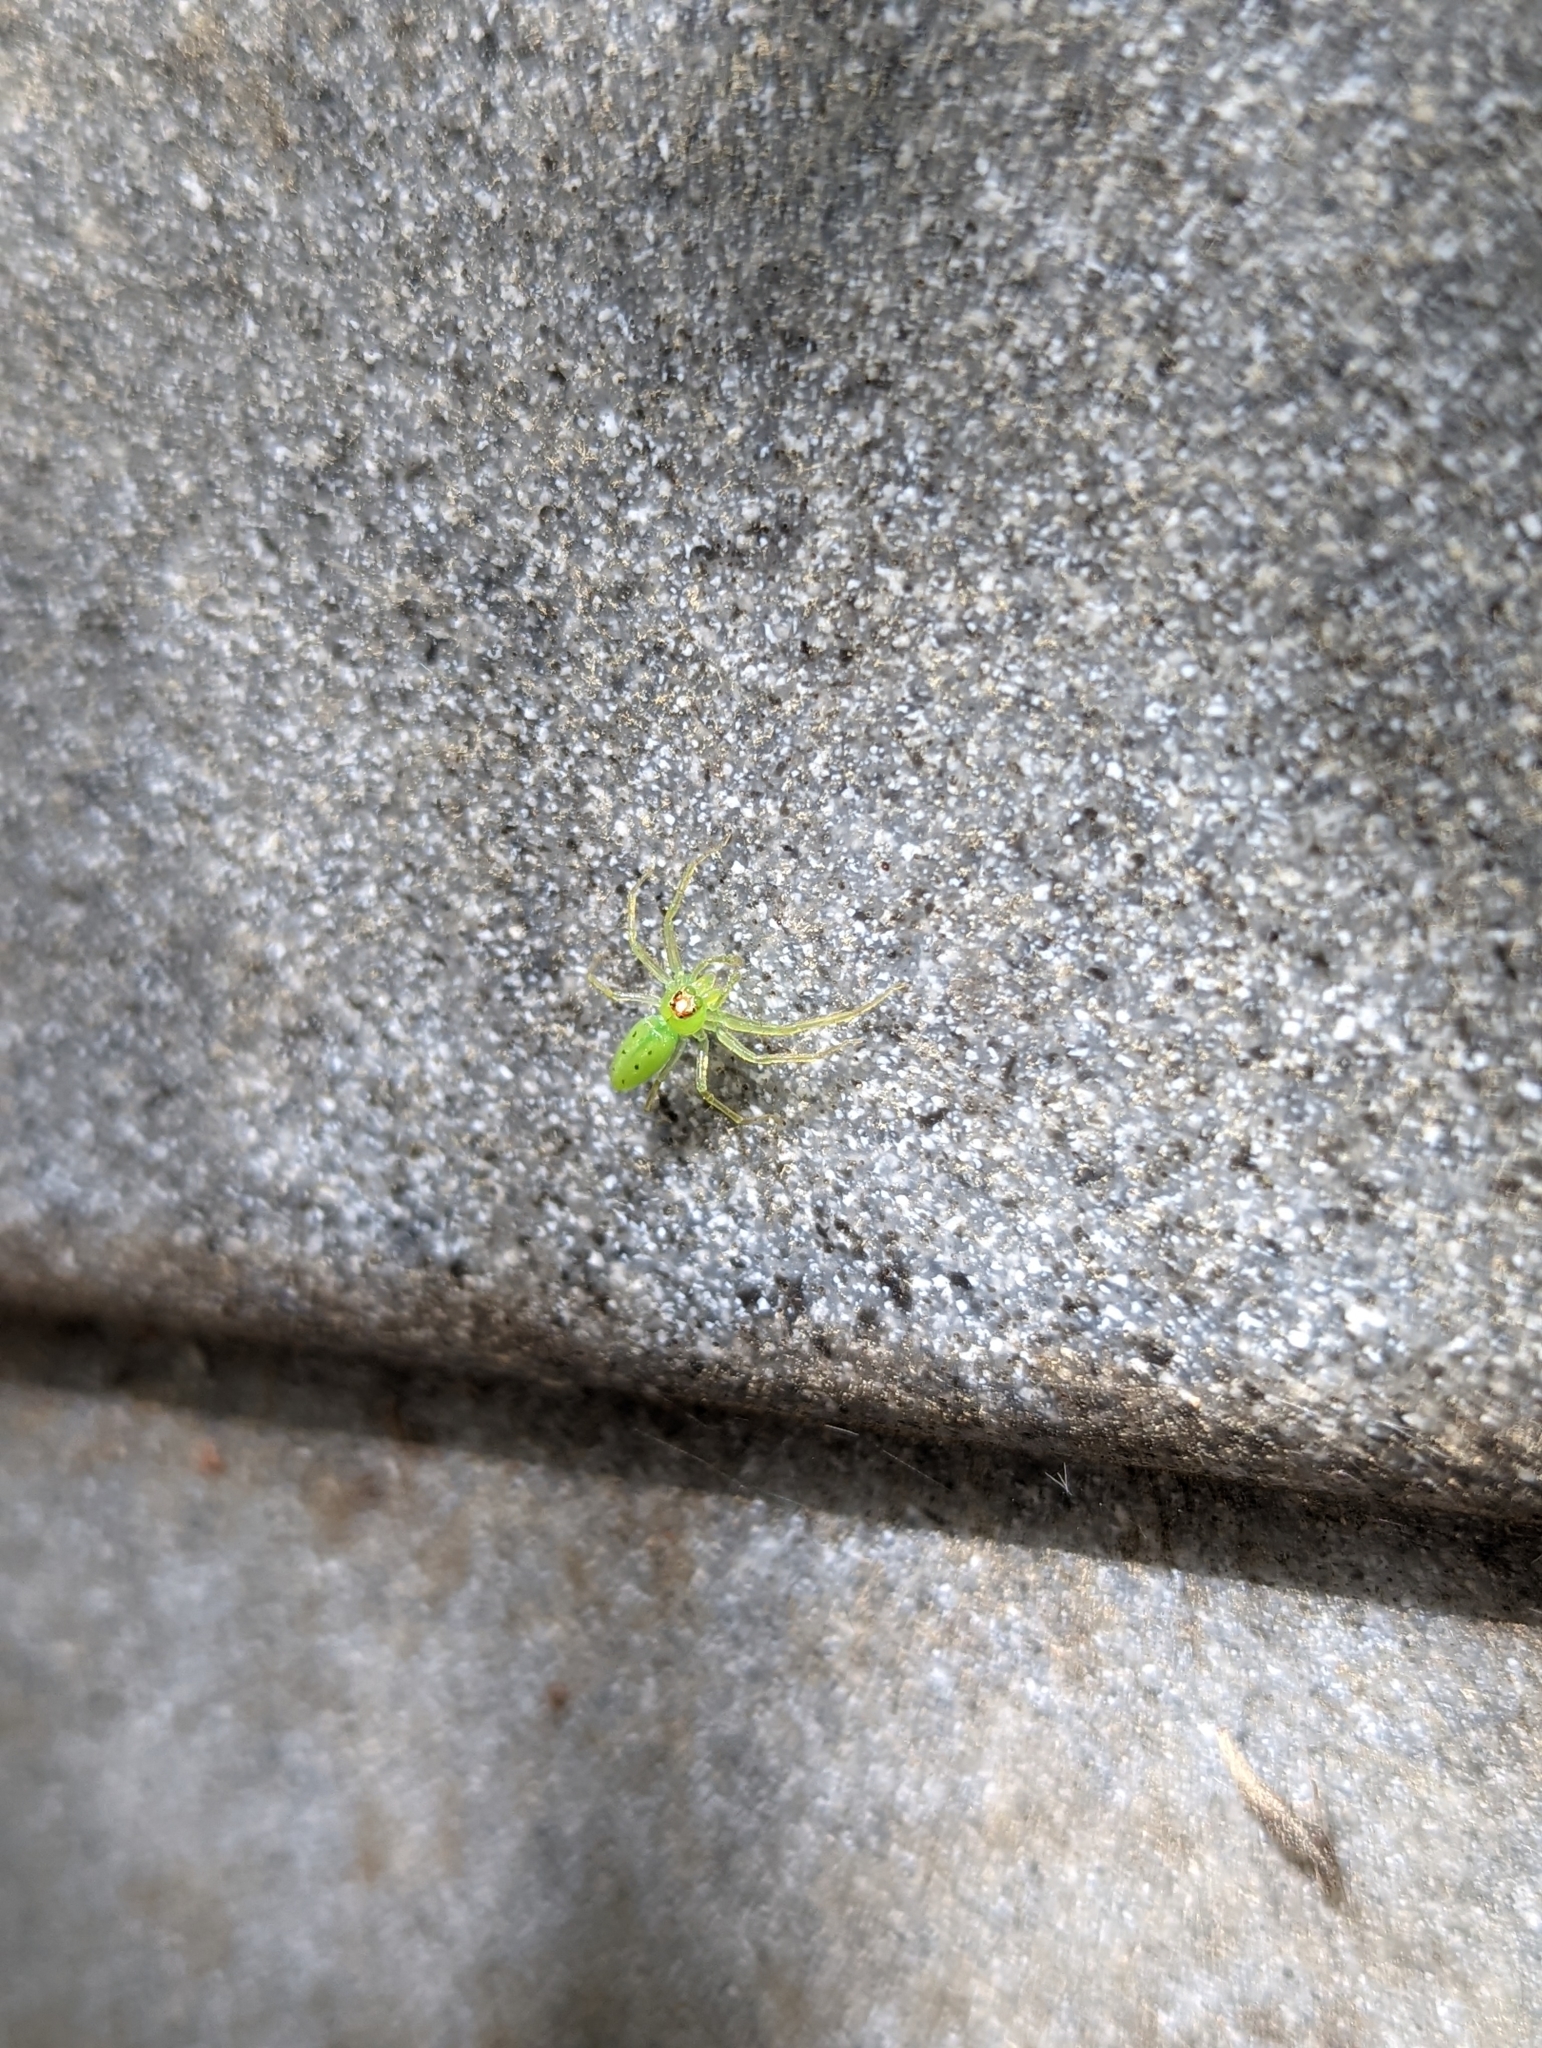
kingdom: Animalia
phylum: Arthropoda
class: Arachnida
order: Araneae
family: Salticidae
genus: Lyssomanes
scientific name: Lyssomanes viridis
